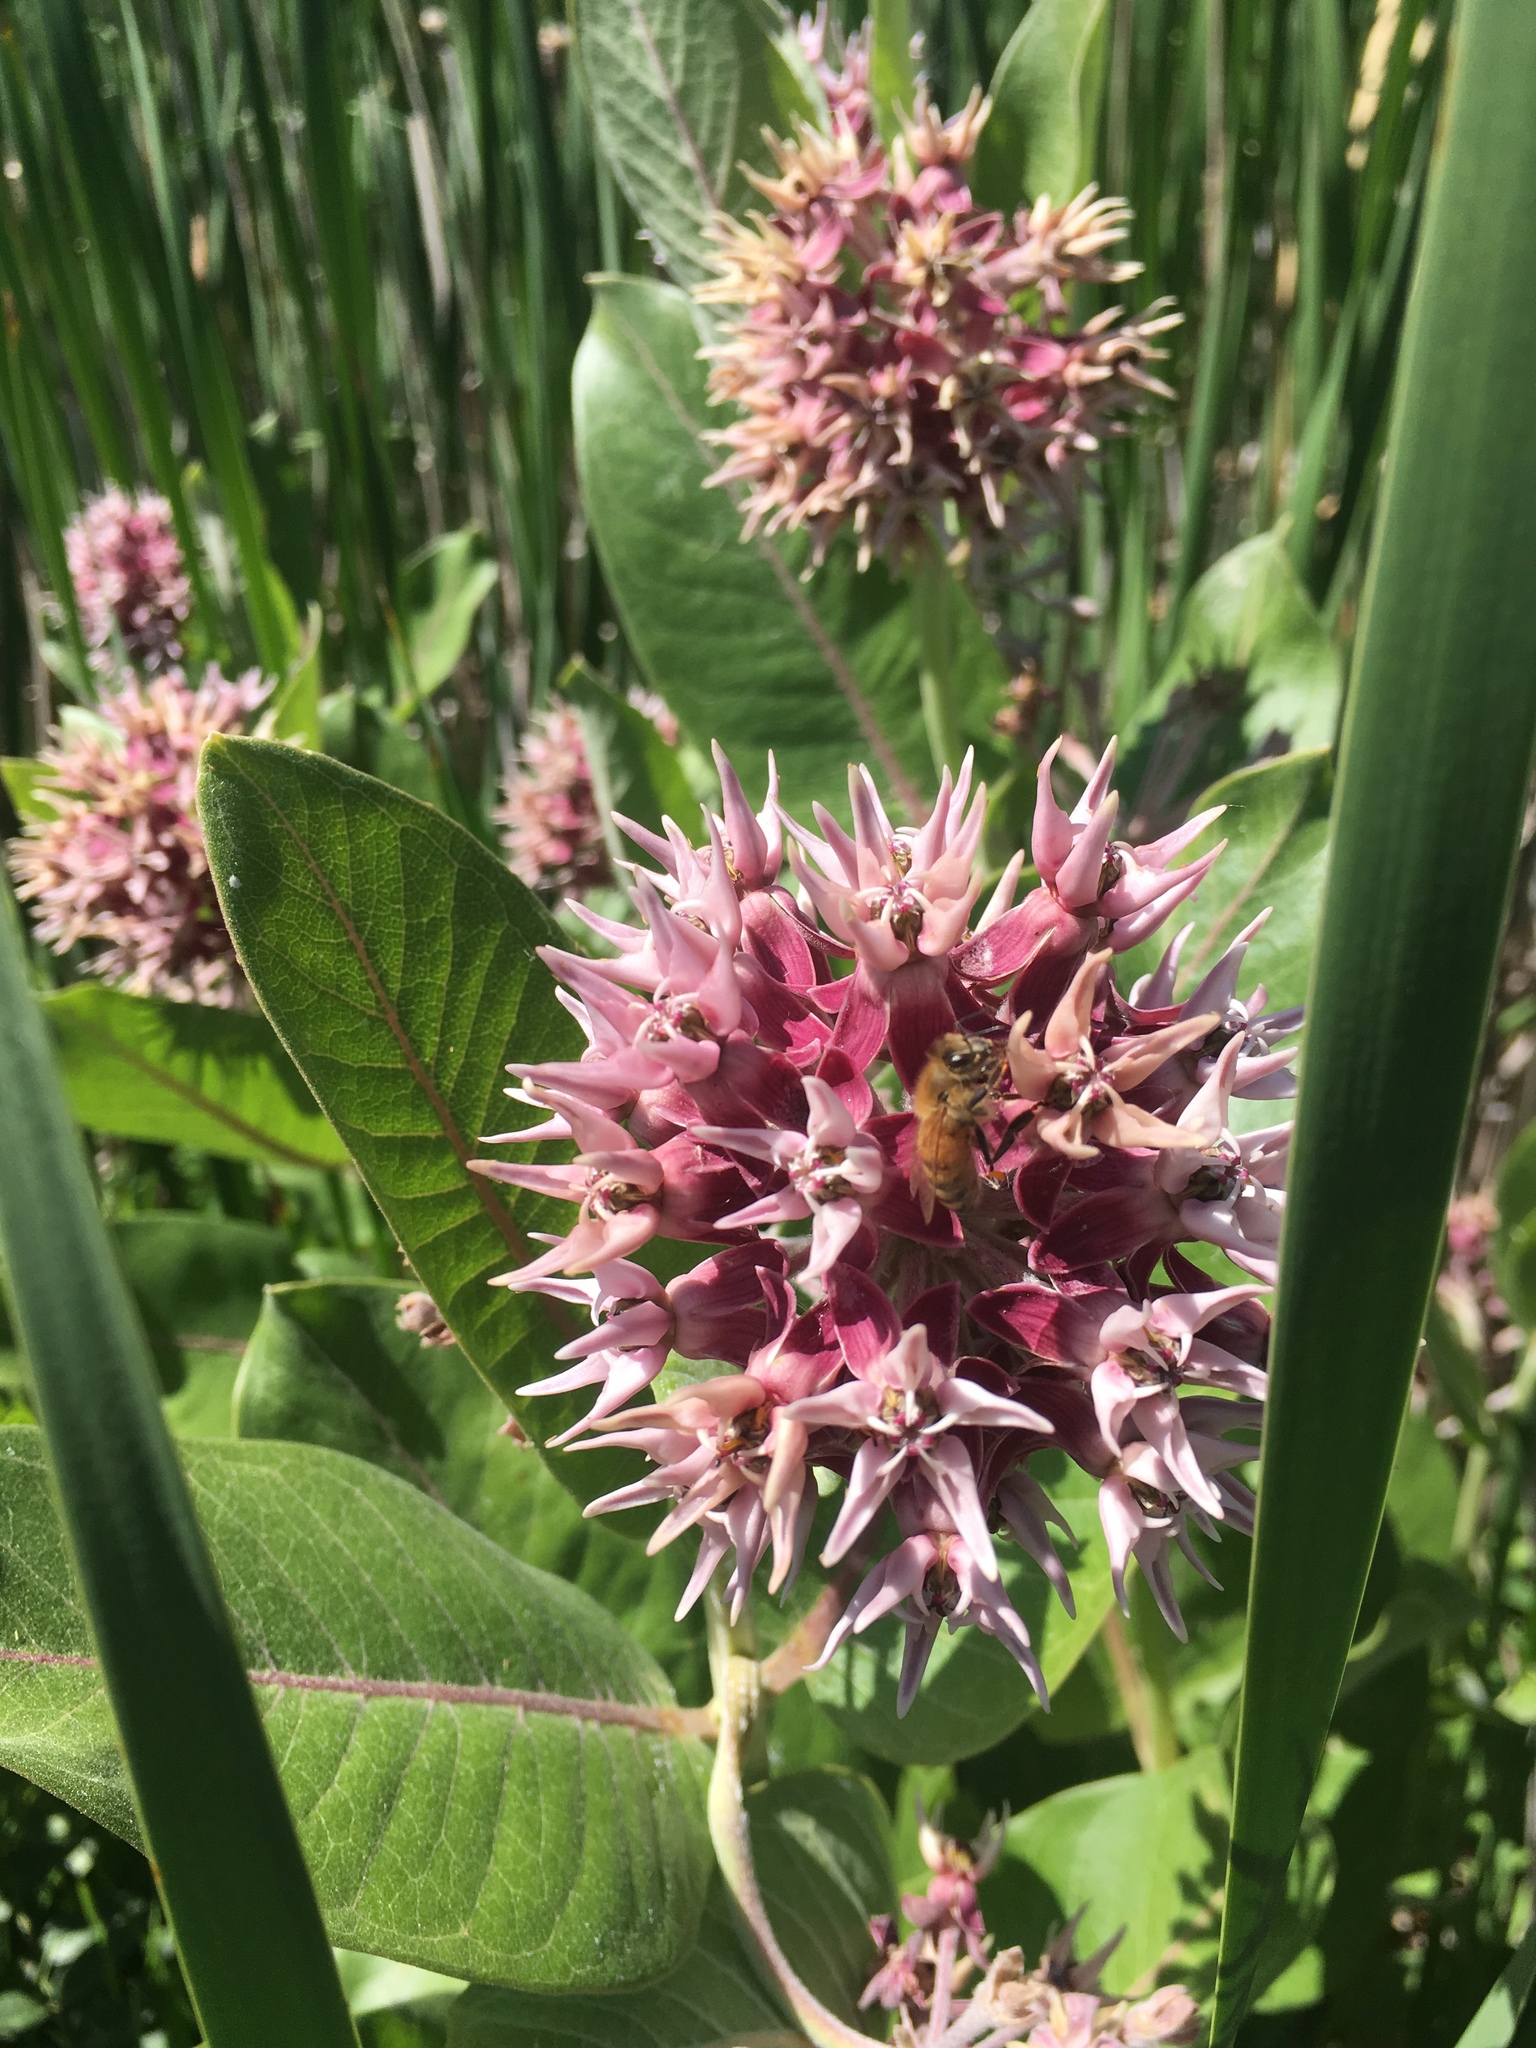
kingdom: Plantae
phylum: Tracheophyta
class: Magnoliopsida
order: Gentianales
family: Apocynaceae
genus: Asclepias
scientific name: Asclepias speciosa
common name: Showy milkweed
